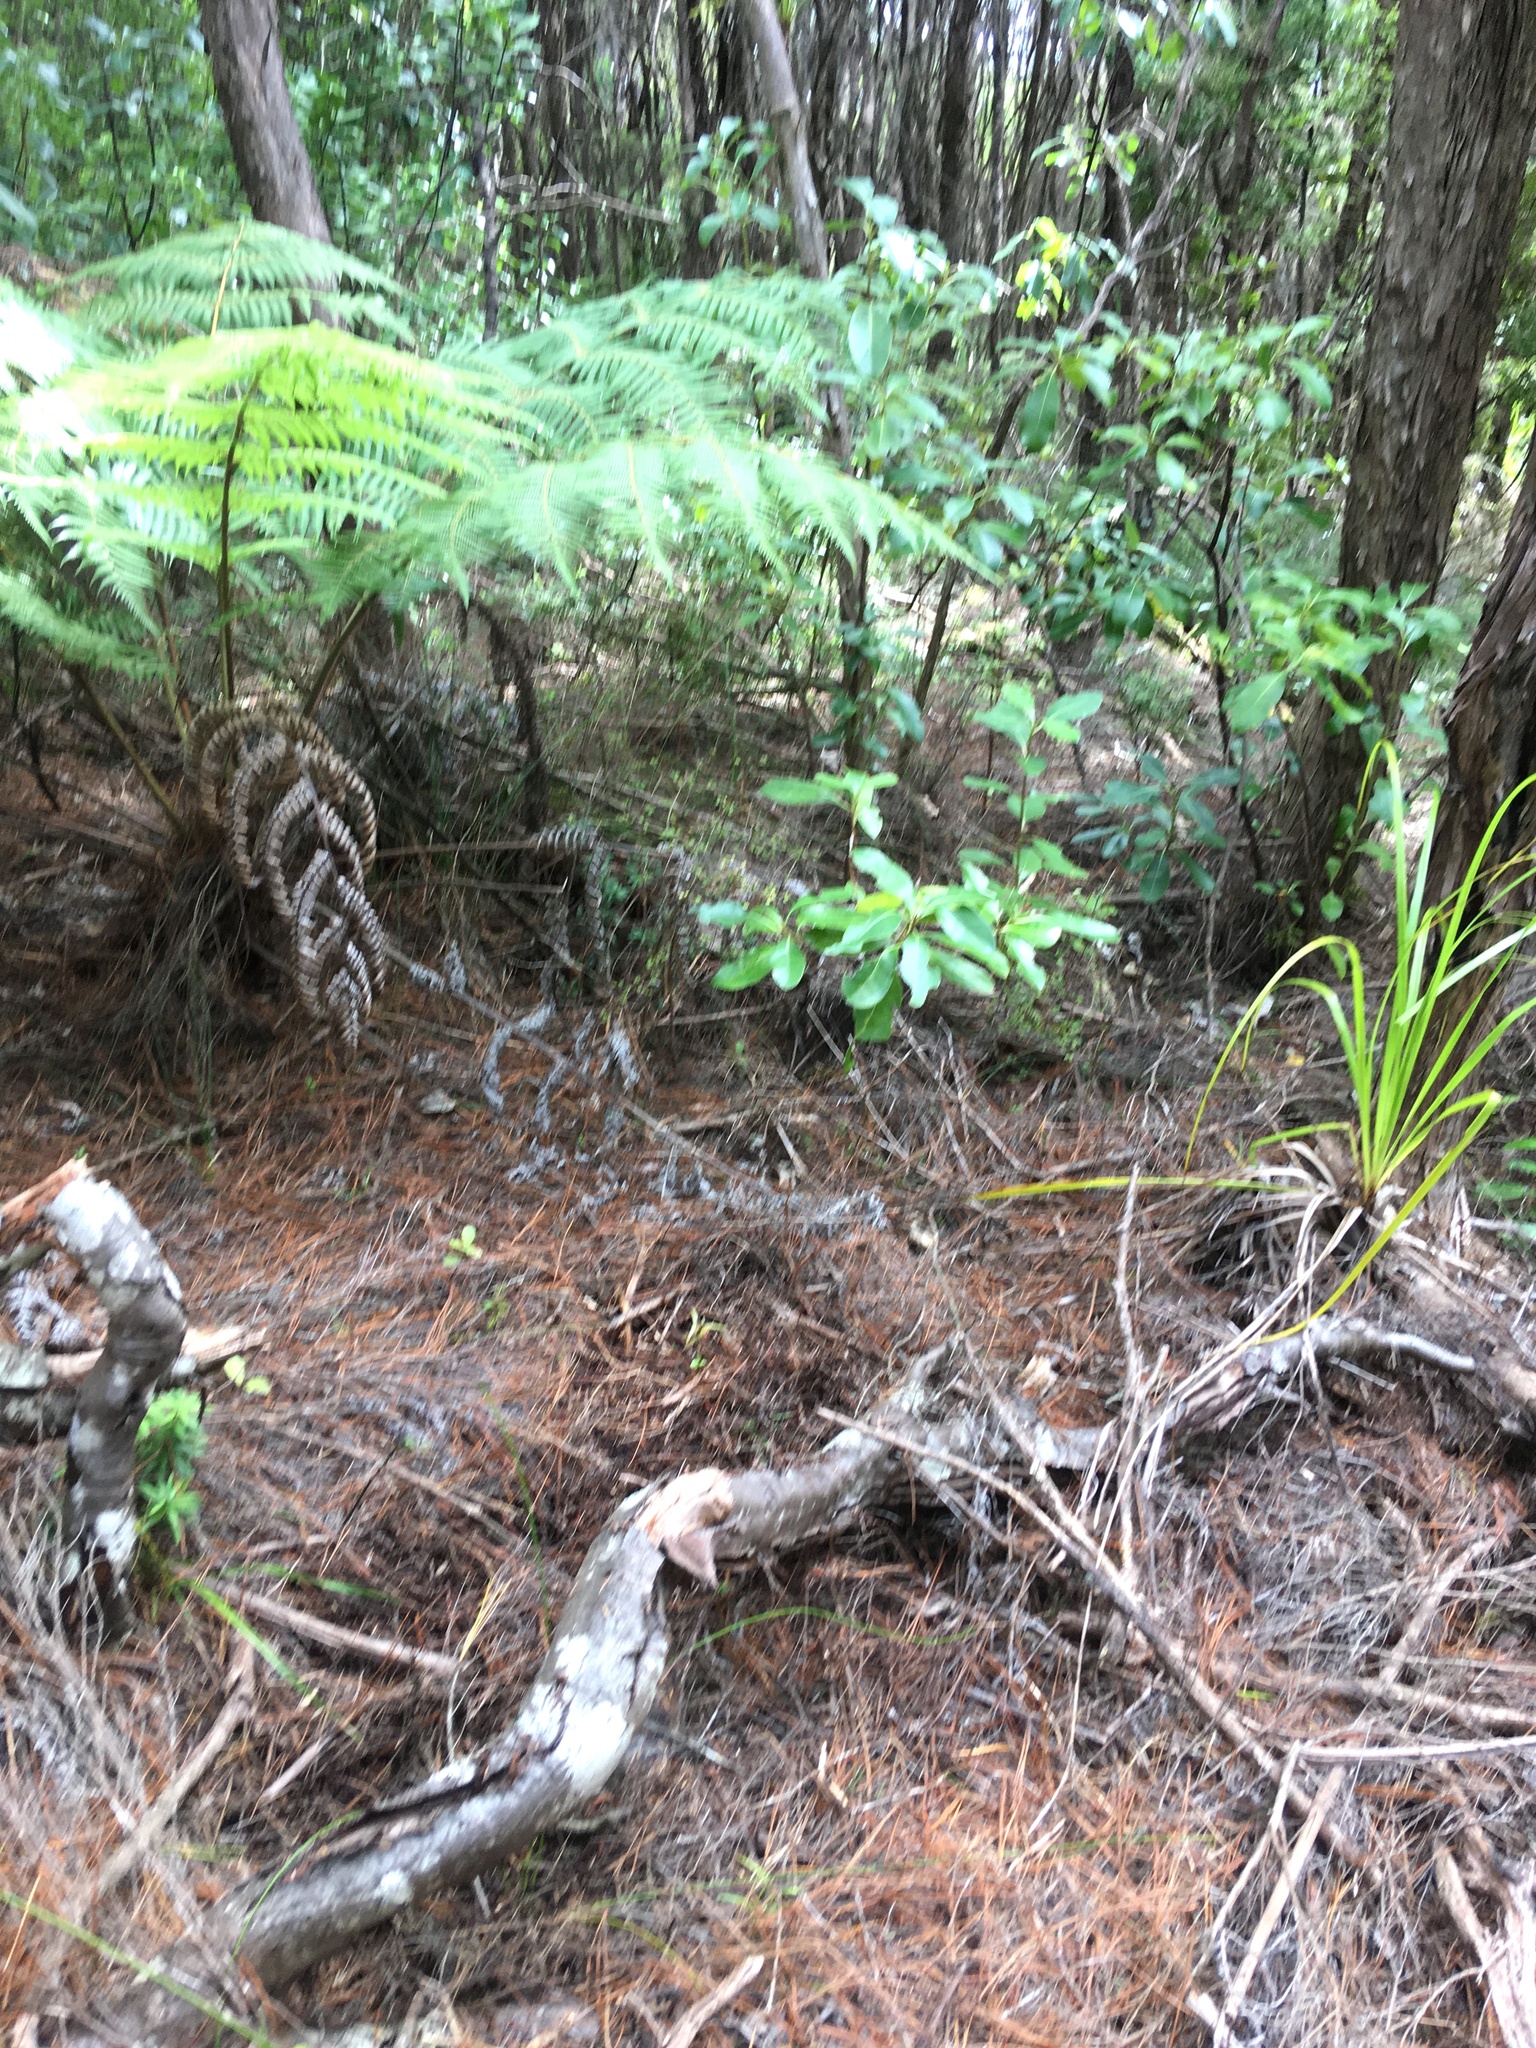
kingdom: Plantae
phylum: Tracheophyta
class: Pinopsida
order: Pinales
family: Araucariaceae
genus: Agathis
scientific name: Agathis australis
